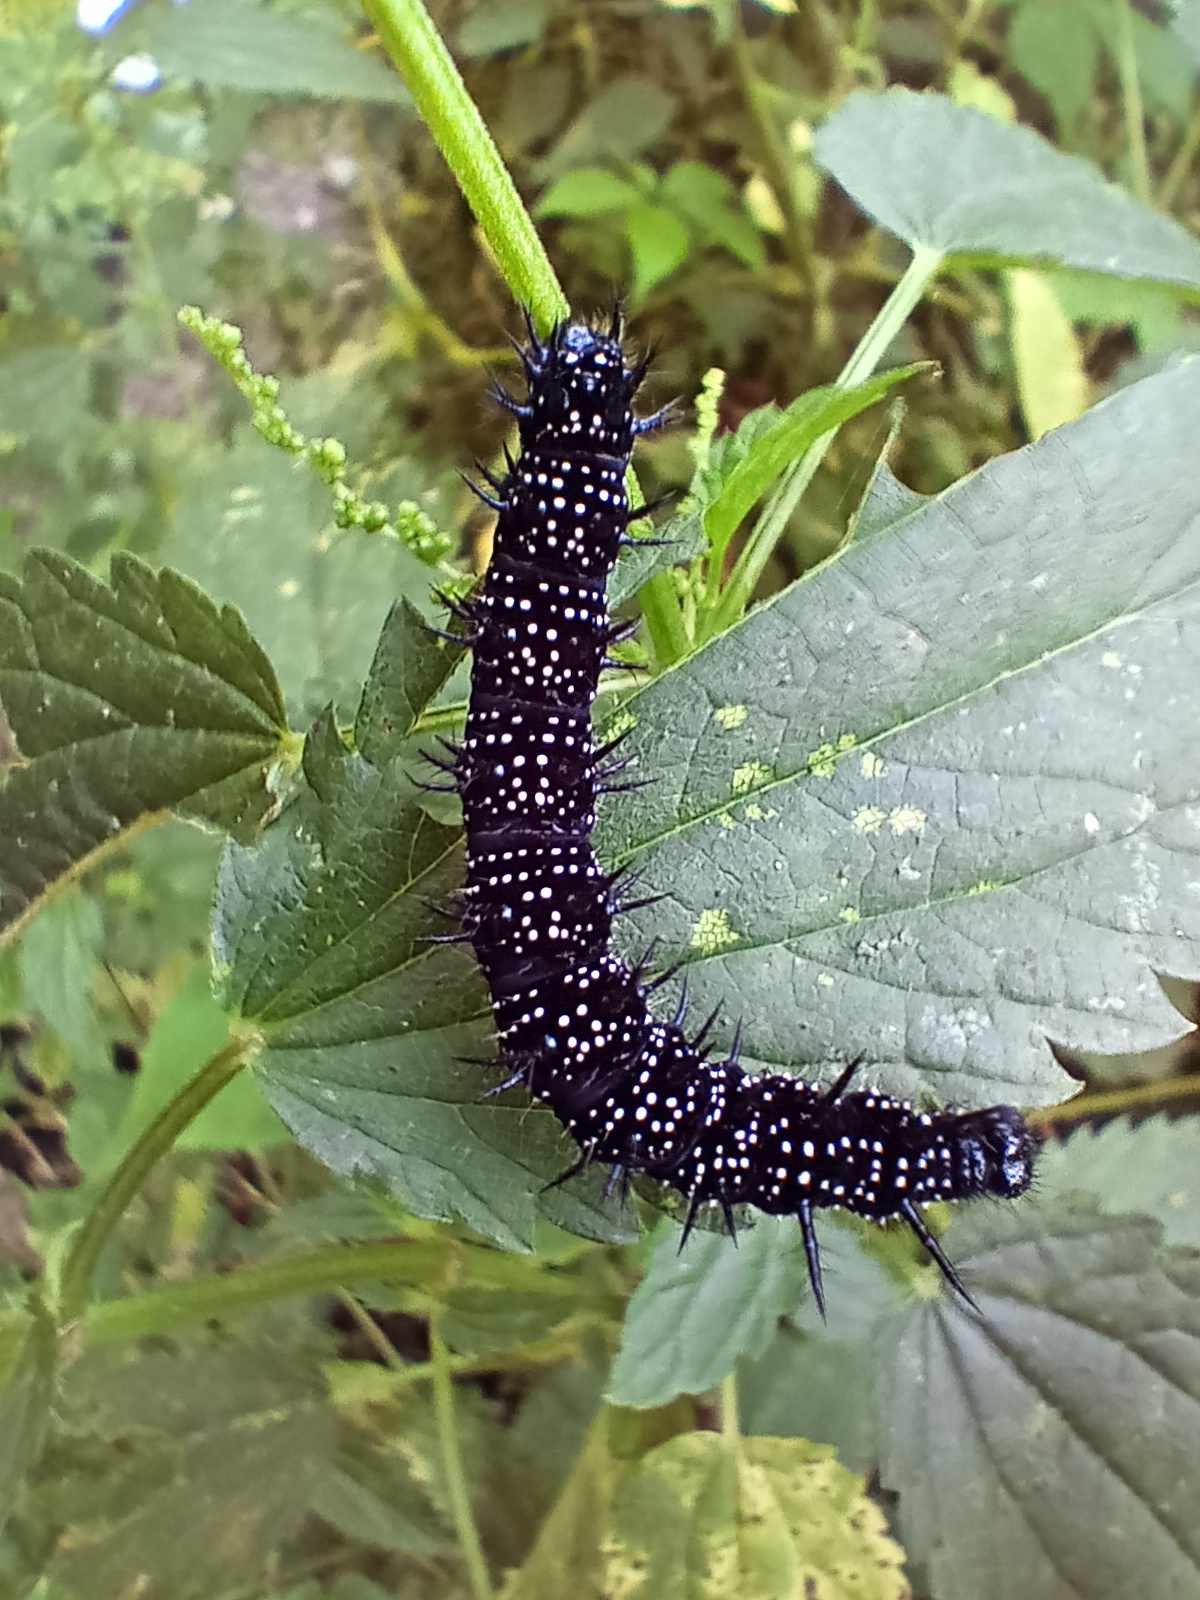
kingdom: Animalia
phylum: Arthropoda
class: Insecta
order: Lepidoptera
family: Nymphalidae
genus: Aglais
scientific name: Aglais io
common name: Peacock
